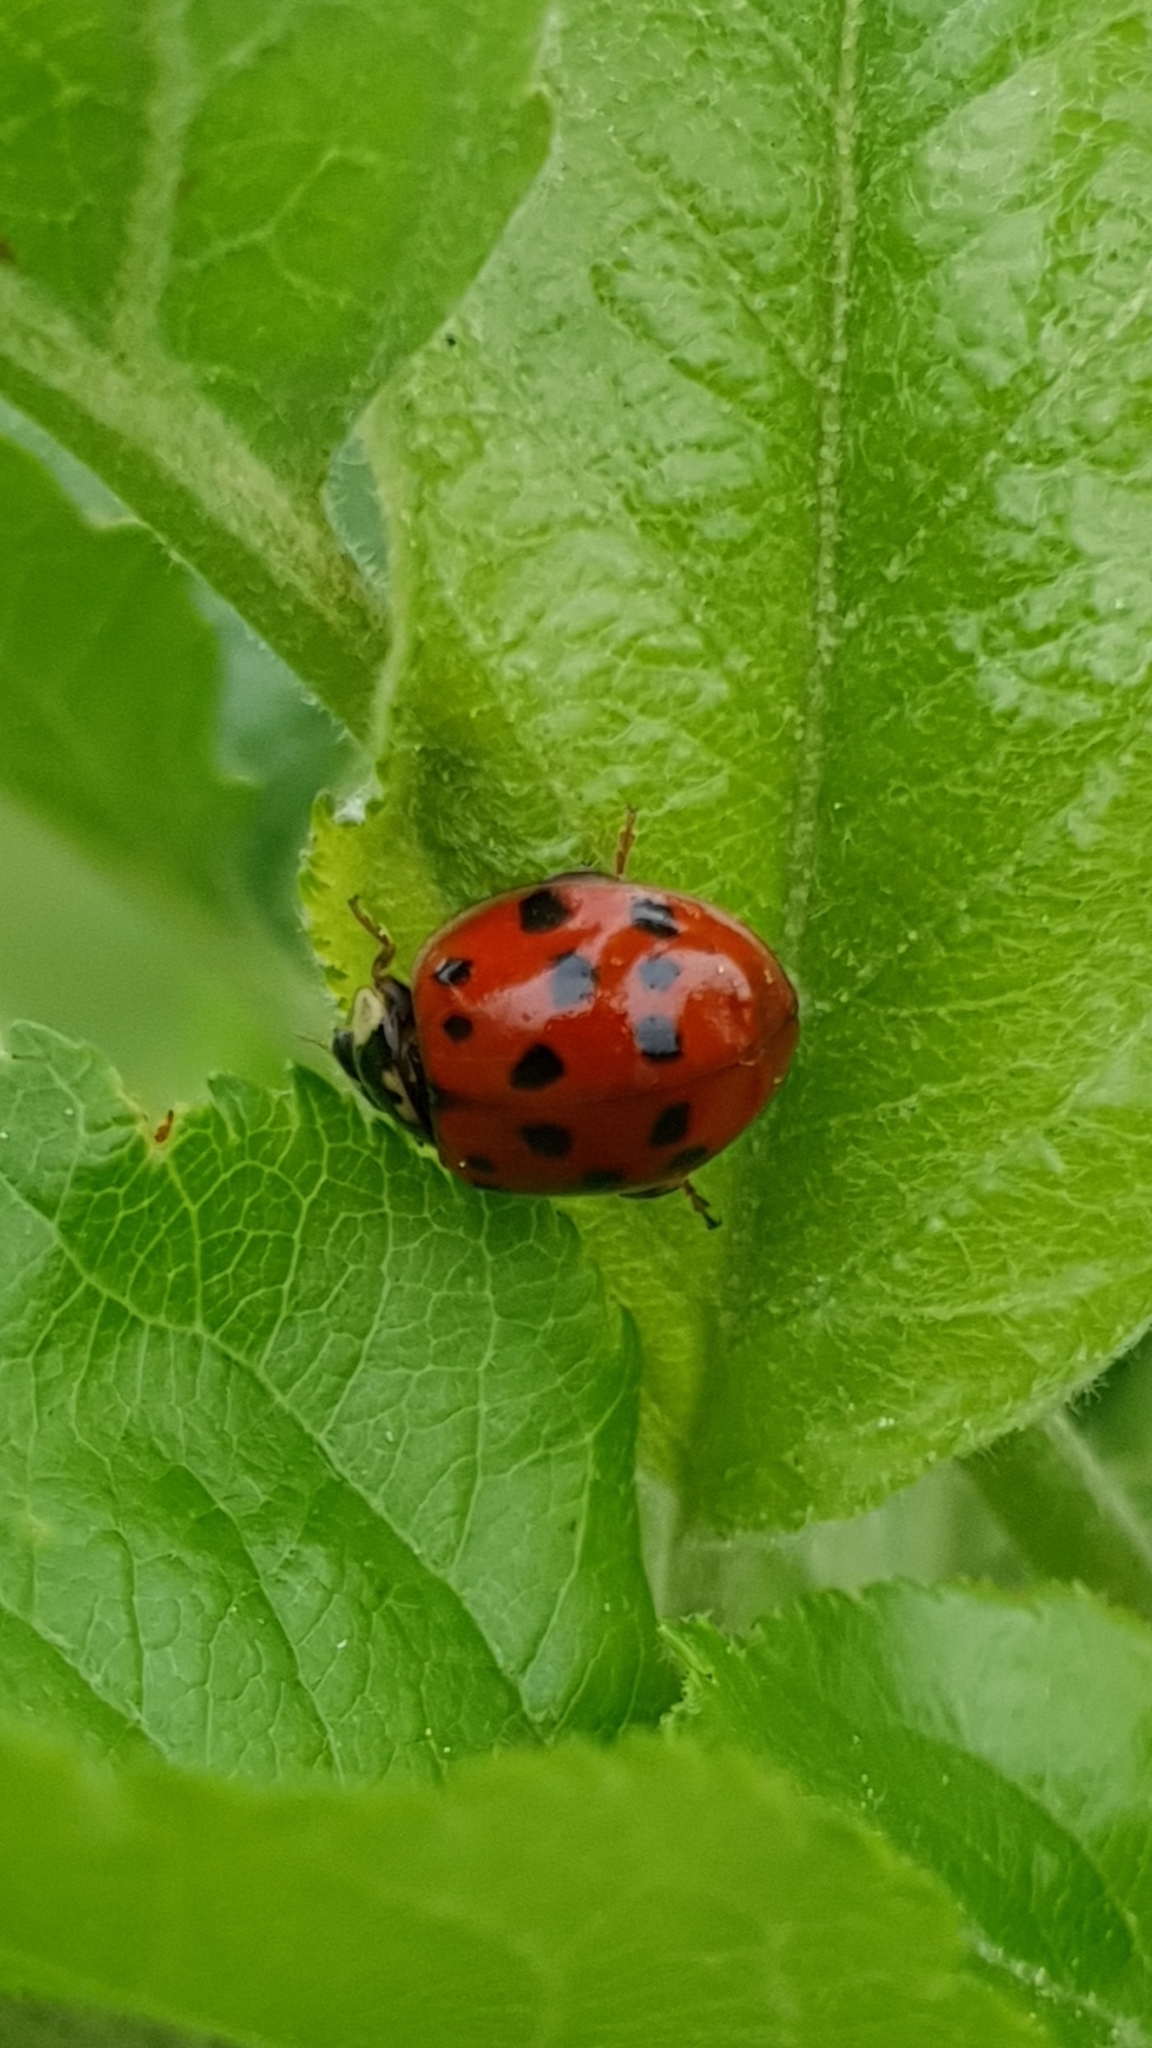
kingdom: Animalia
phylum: Arthropoda
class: Insecta
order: Coleoptera
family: Coccinellidae
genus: Harmonia
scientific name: Harmonia axyridis
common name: Harlequin ladybird
